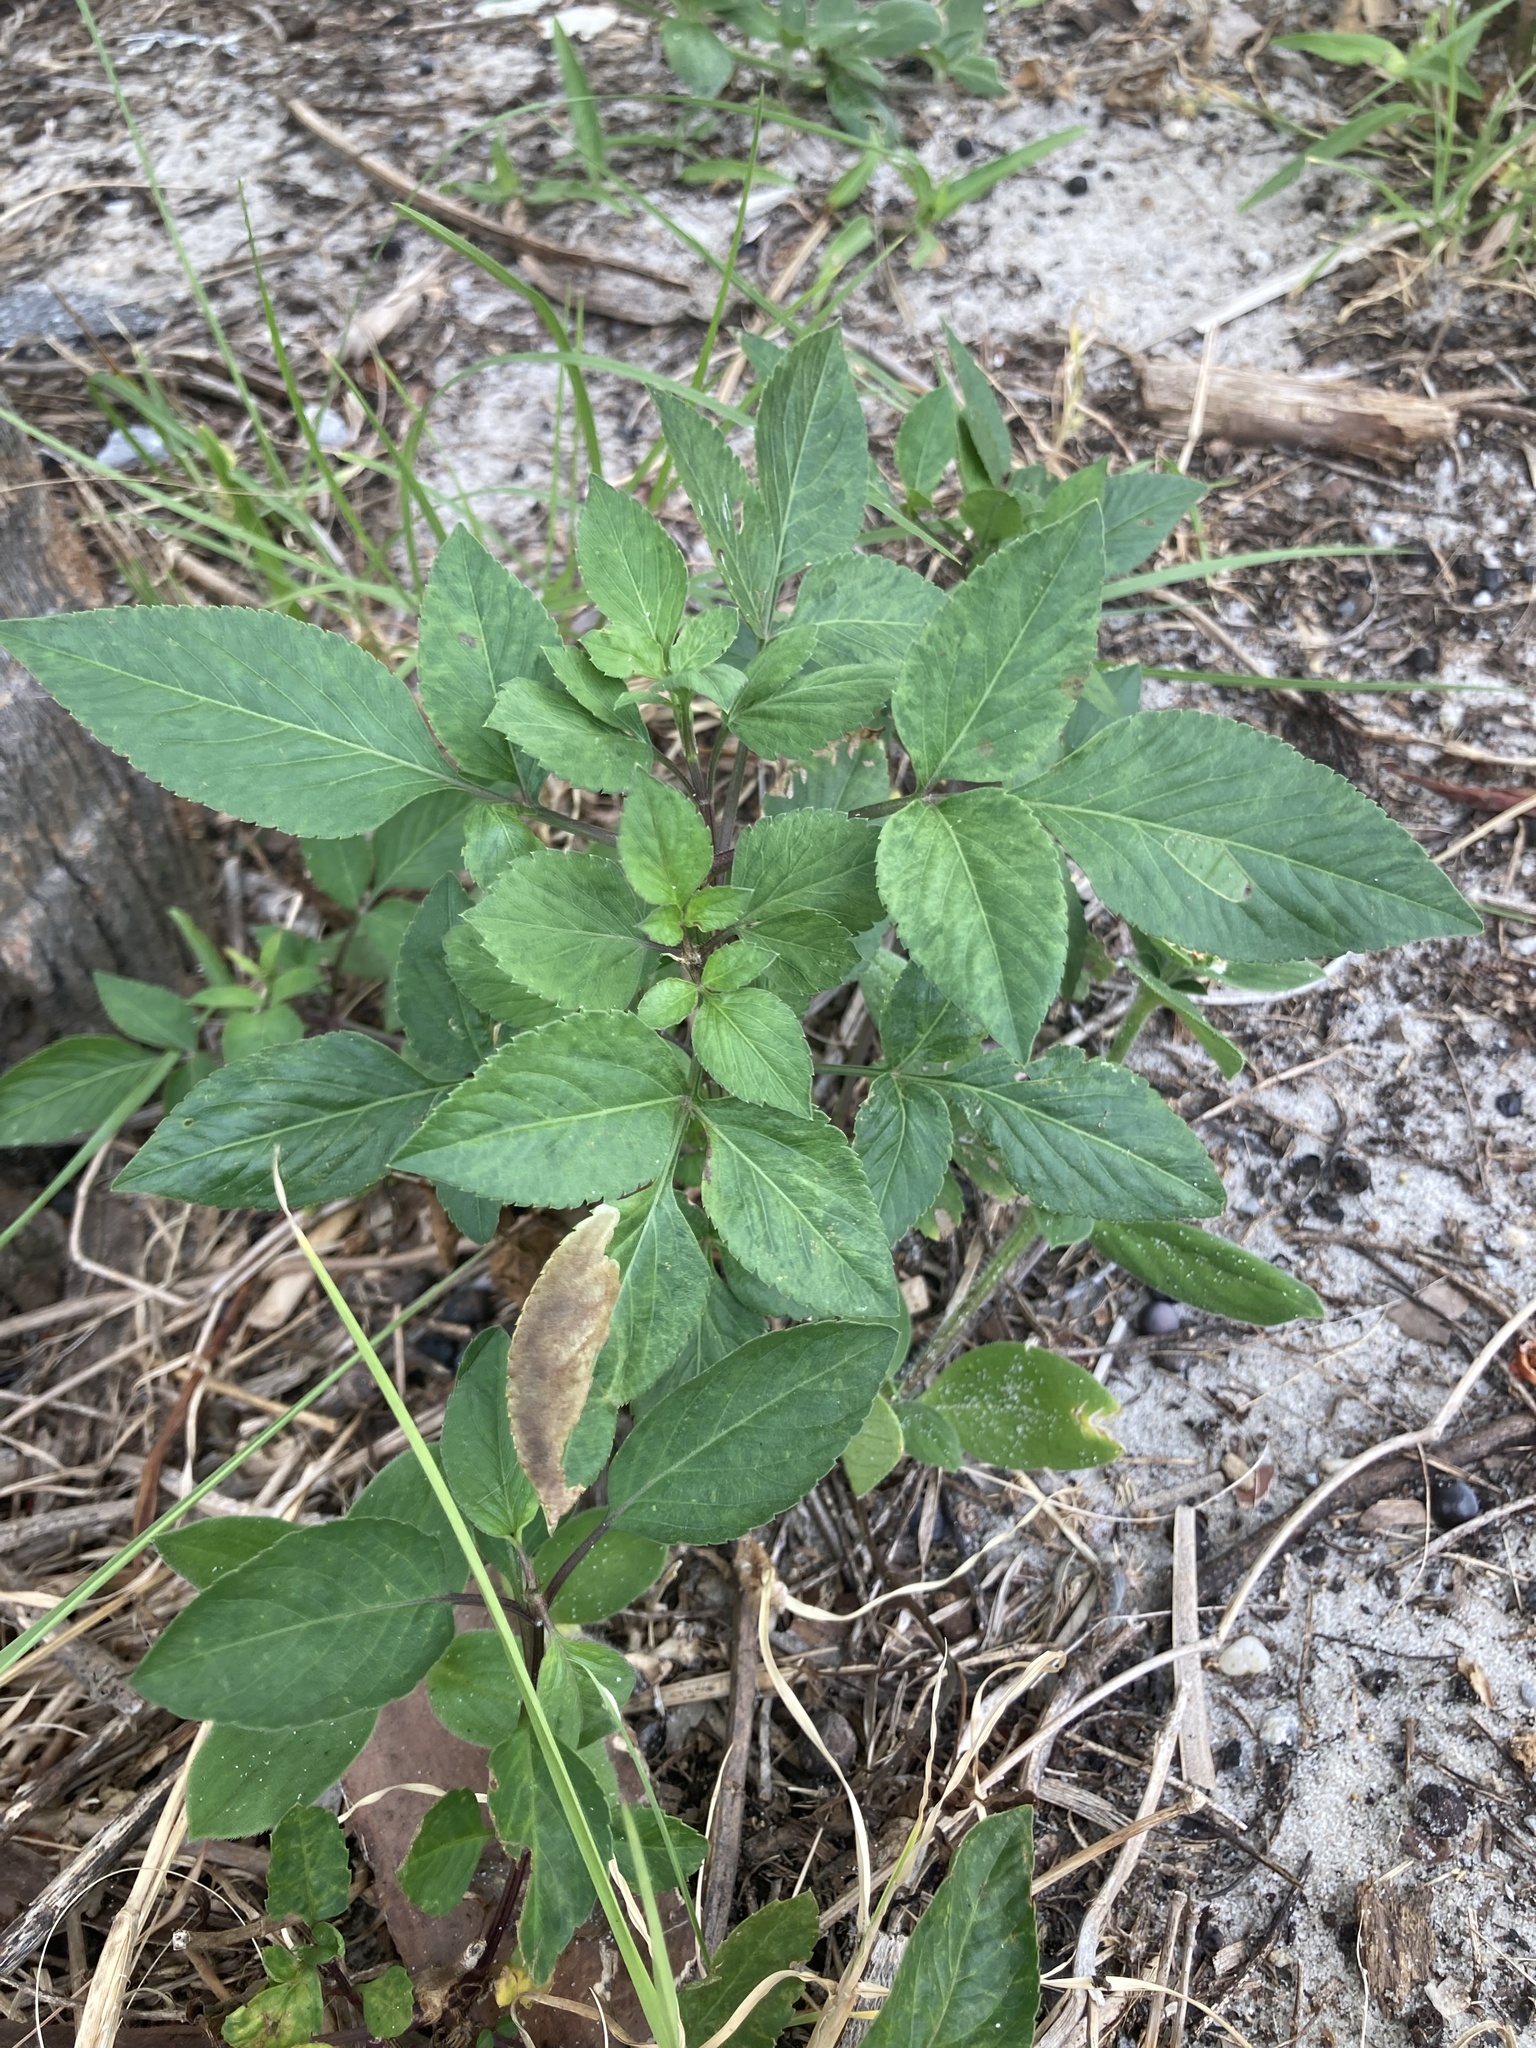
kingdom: Plantae
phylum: Tracheophyta
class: Magnoliopsida
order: Asterales
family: Asteraceae
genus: Bidens
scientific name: Bidens alba
